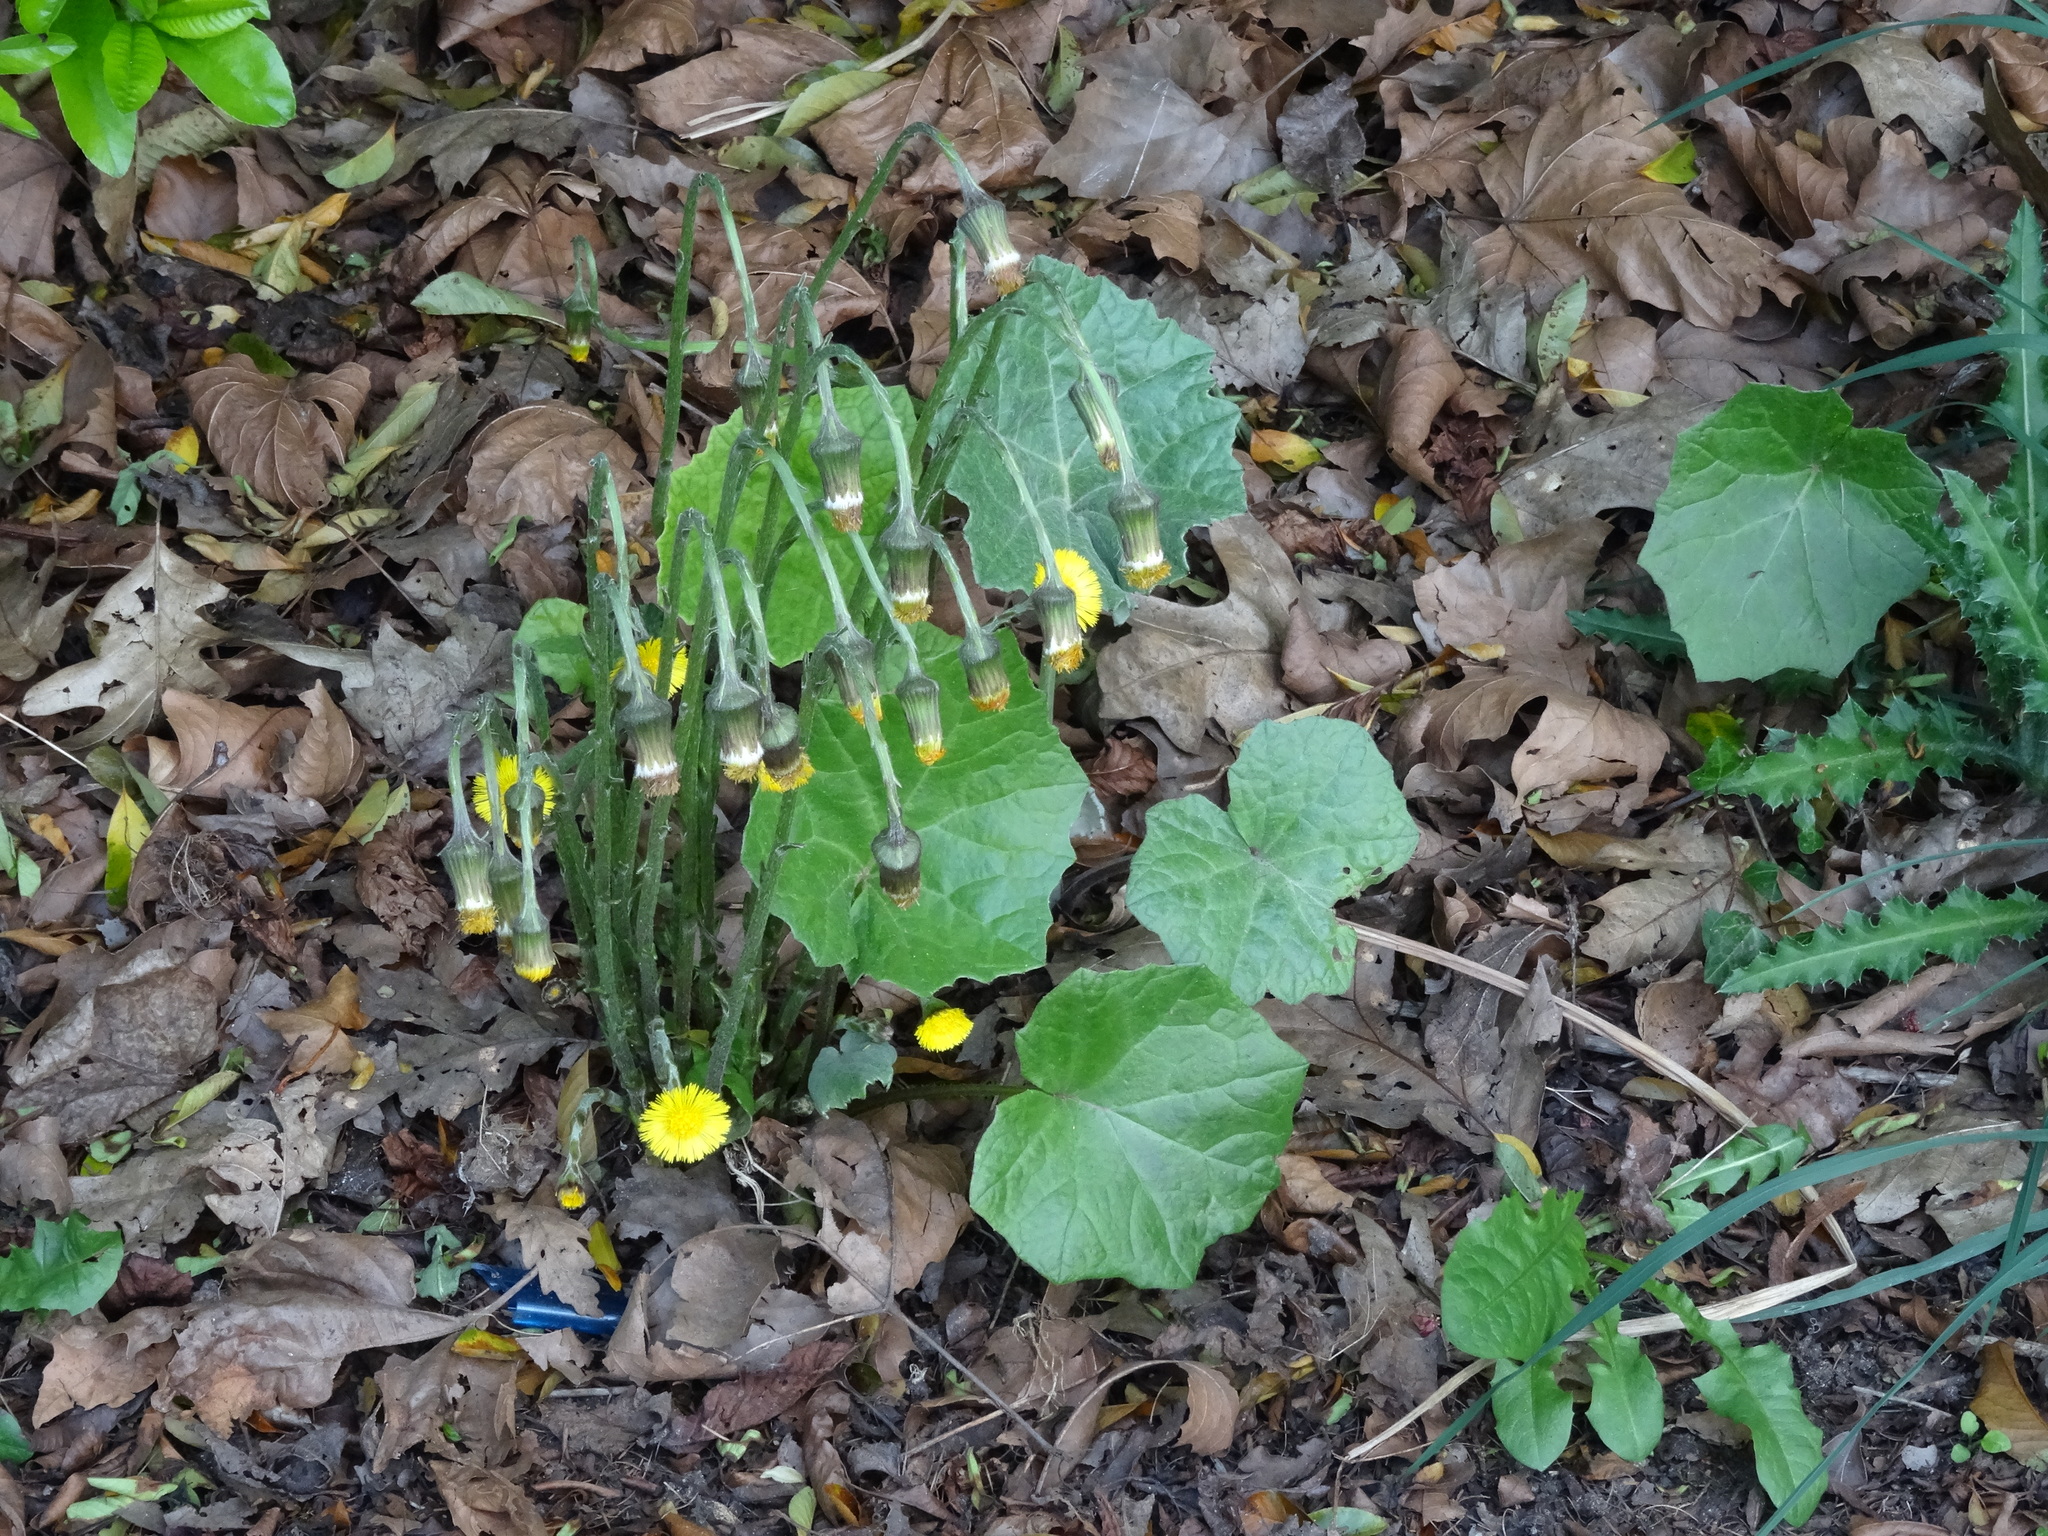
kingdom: Plantae
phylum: Tracheophyta
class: Magnoliopsida
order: Asterales
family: Asteraceae
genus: Tussilago
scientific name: Tussilago farfara
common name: Coltsfoot
